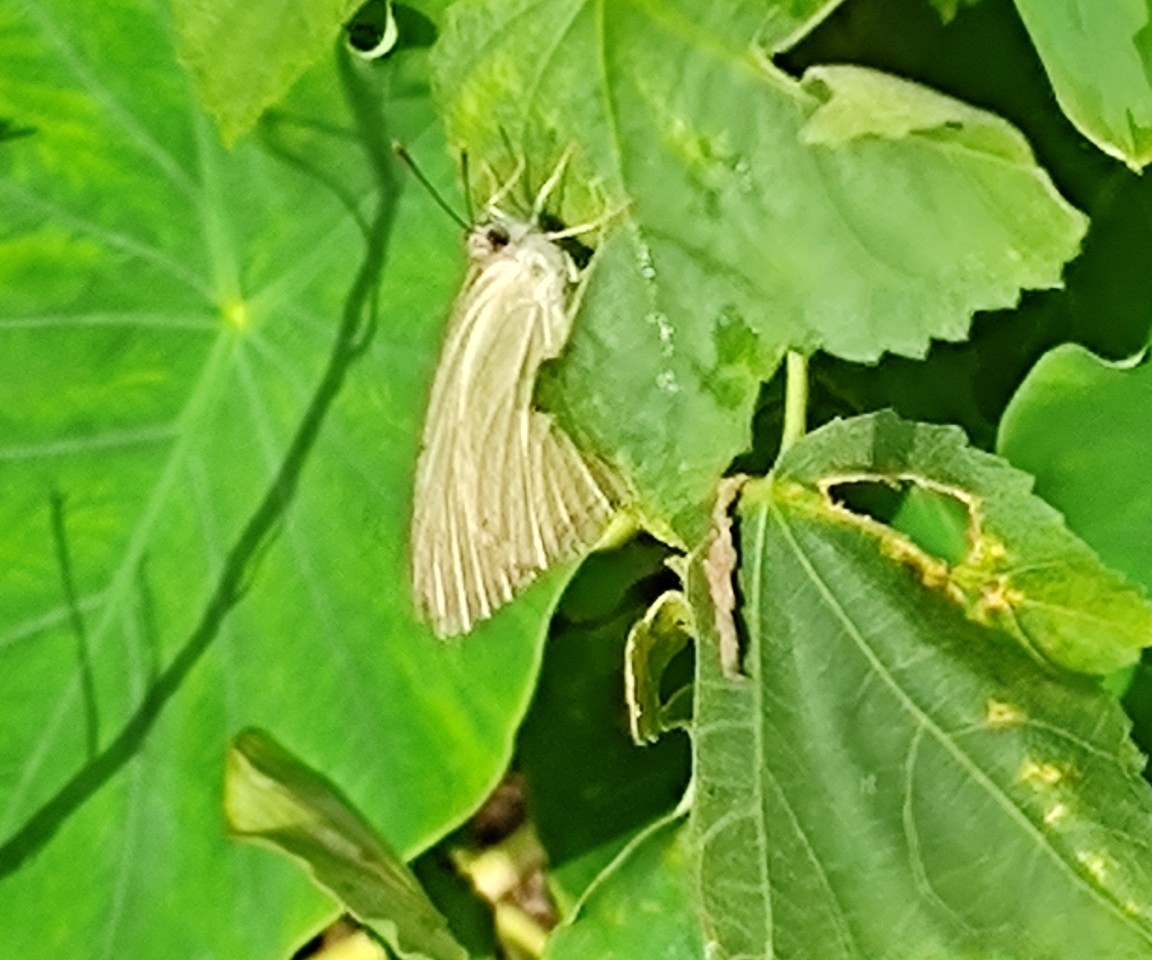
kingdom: Animalia
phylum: Arthropoda
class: Insecta
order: Lepidoptera
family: Pieridae
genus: Catopsilia
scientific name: Catopsilia pomona
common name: Common emigrant
